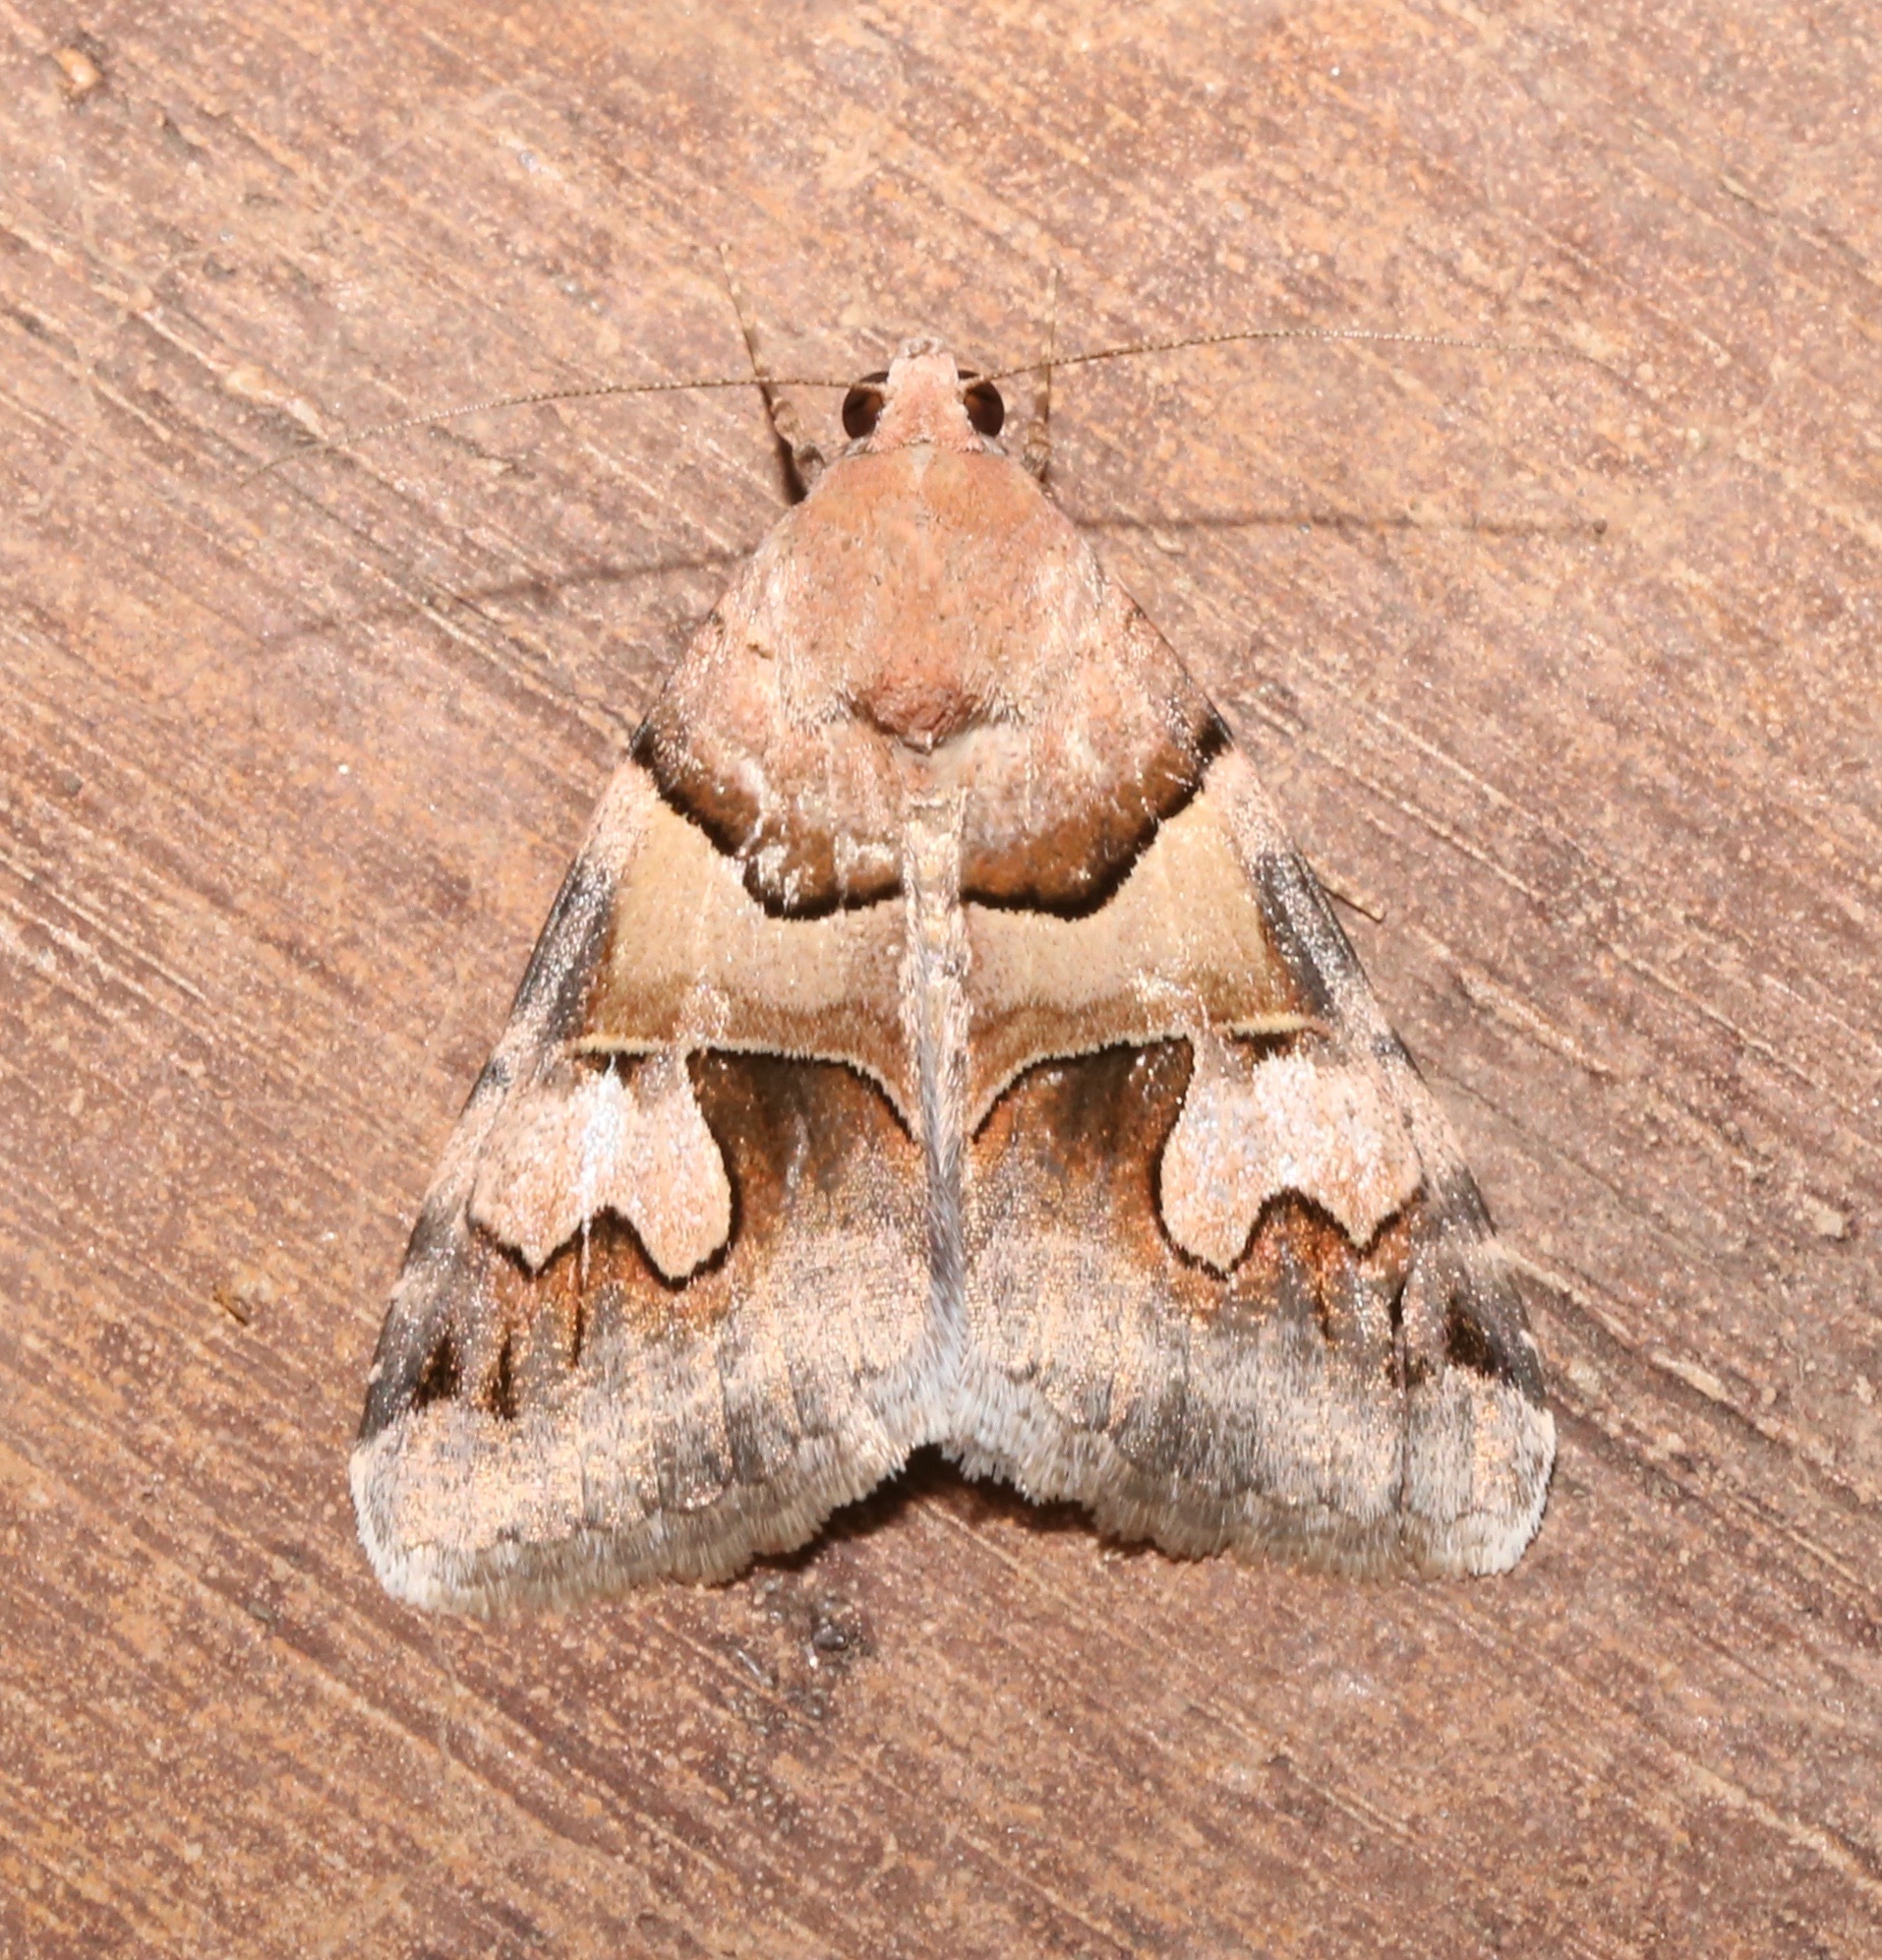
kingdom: Animalia
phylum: Arthropoda
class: Insecta
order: Lepidoptera
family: Erebidae
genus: Drasteria
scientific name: Drasteria pallescens
